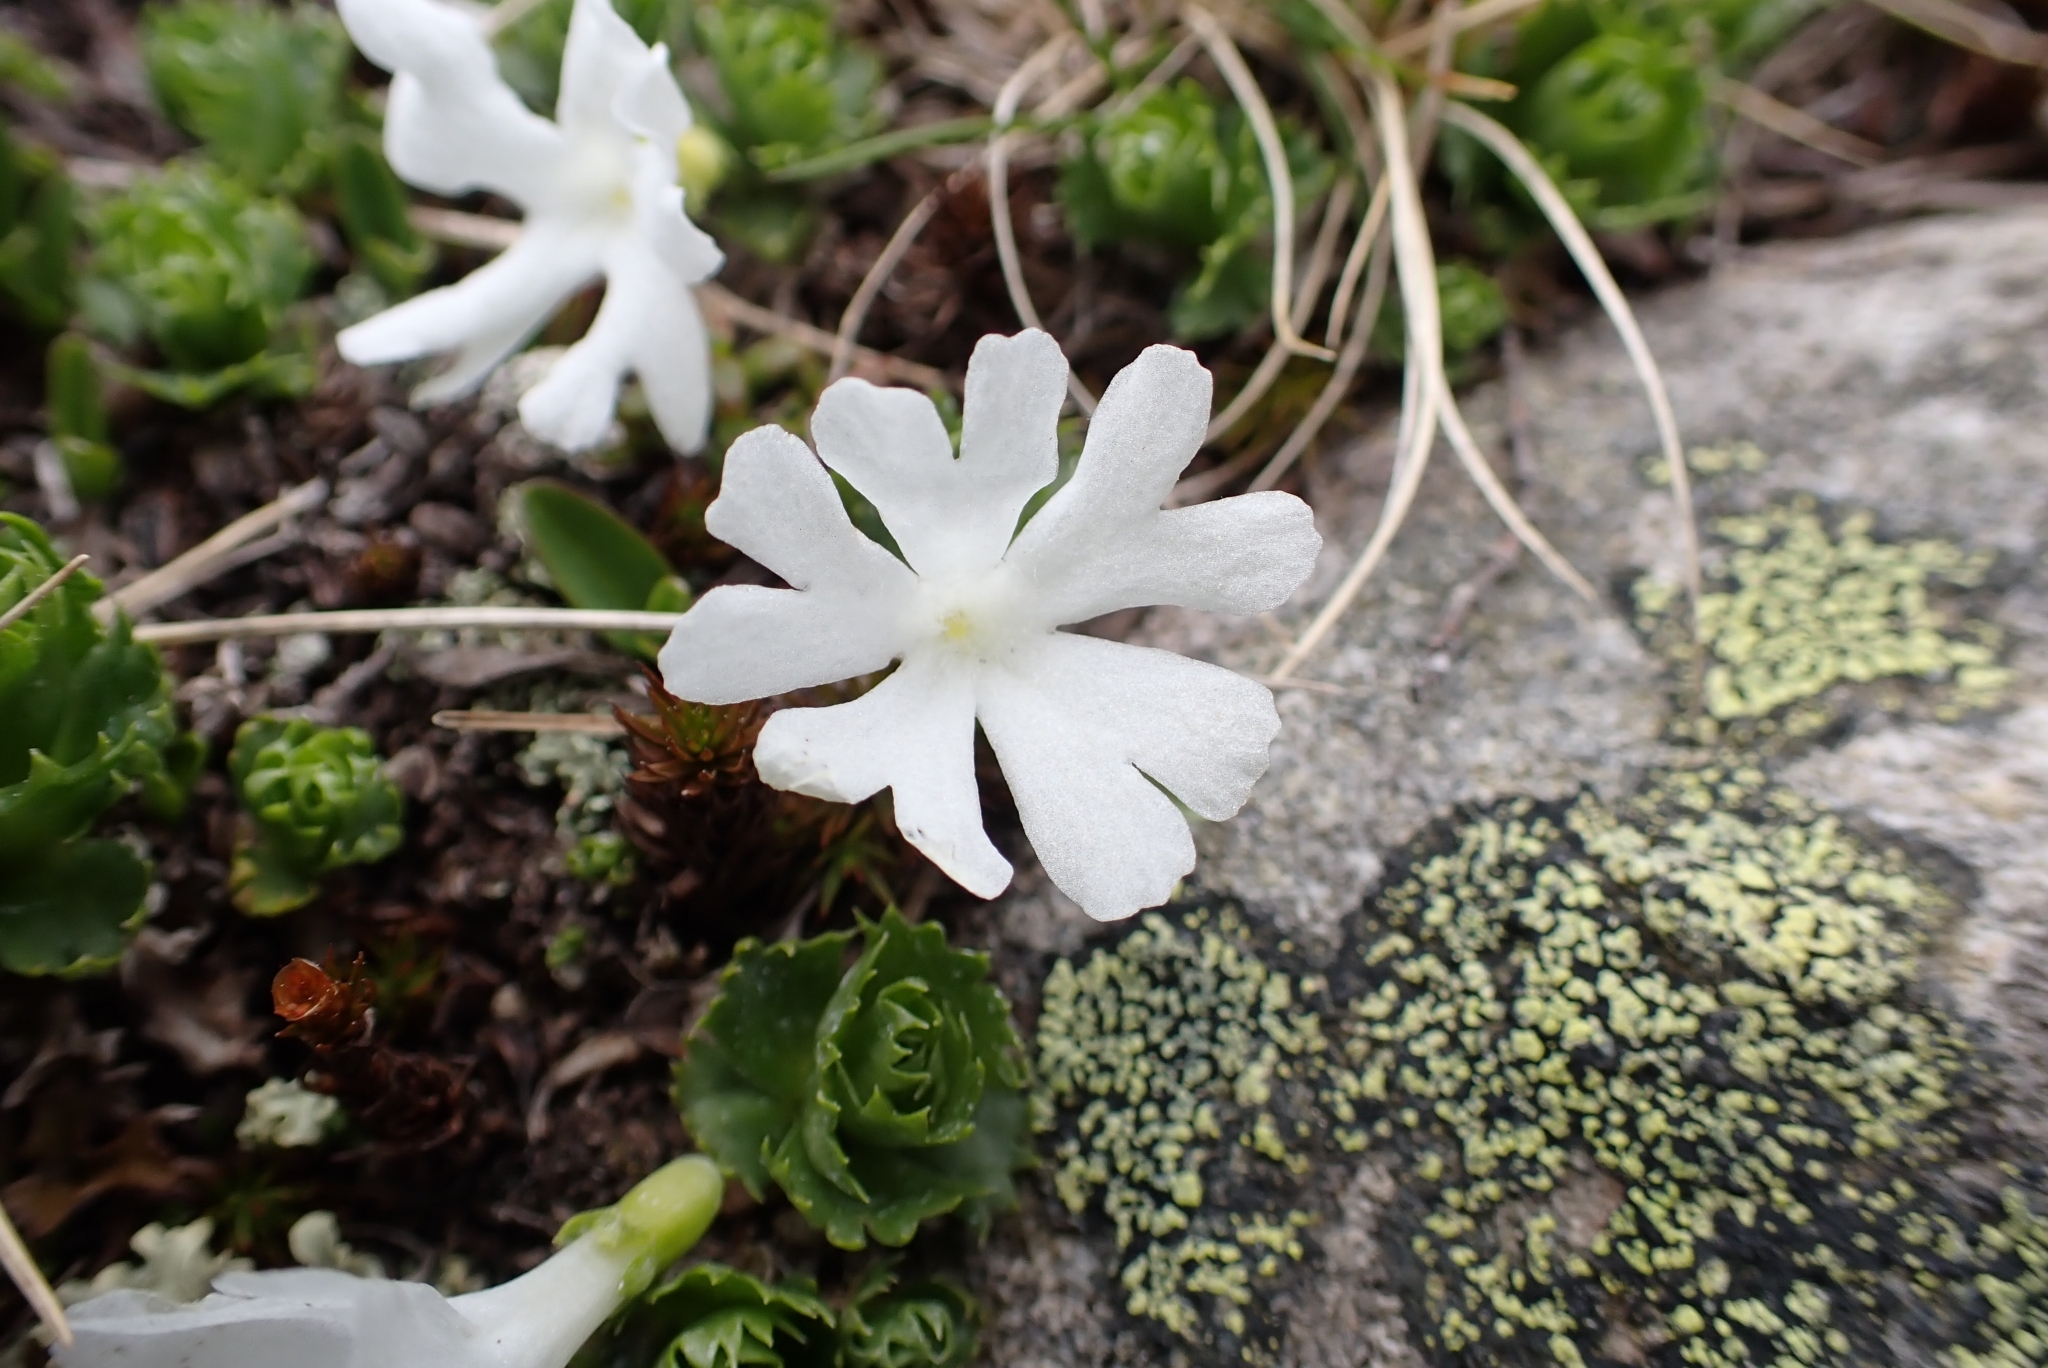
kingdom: Plantae
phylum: Tracheophyta
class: Magnoliopsida
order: Ericales
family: Primulaceae
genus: Primula
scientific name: Primula minima
